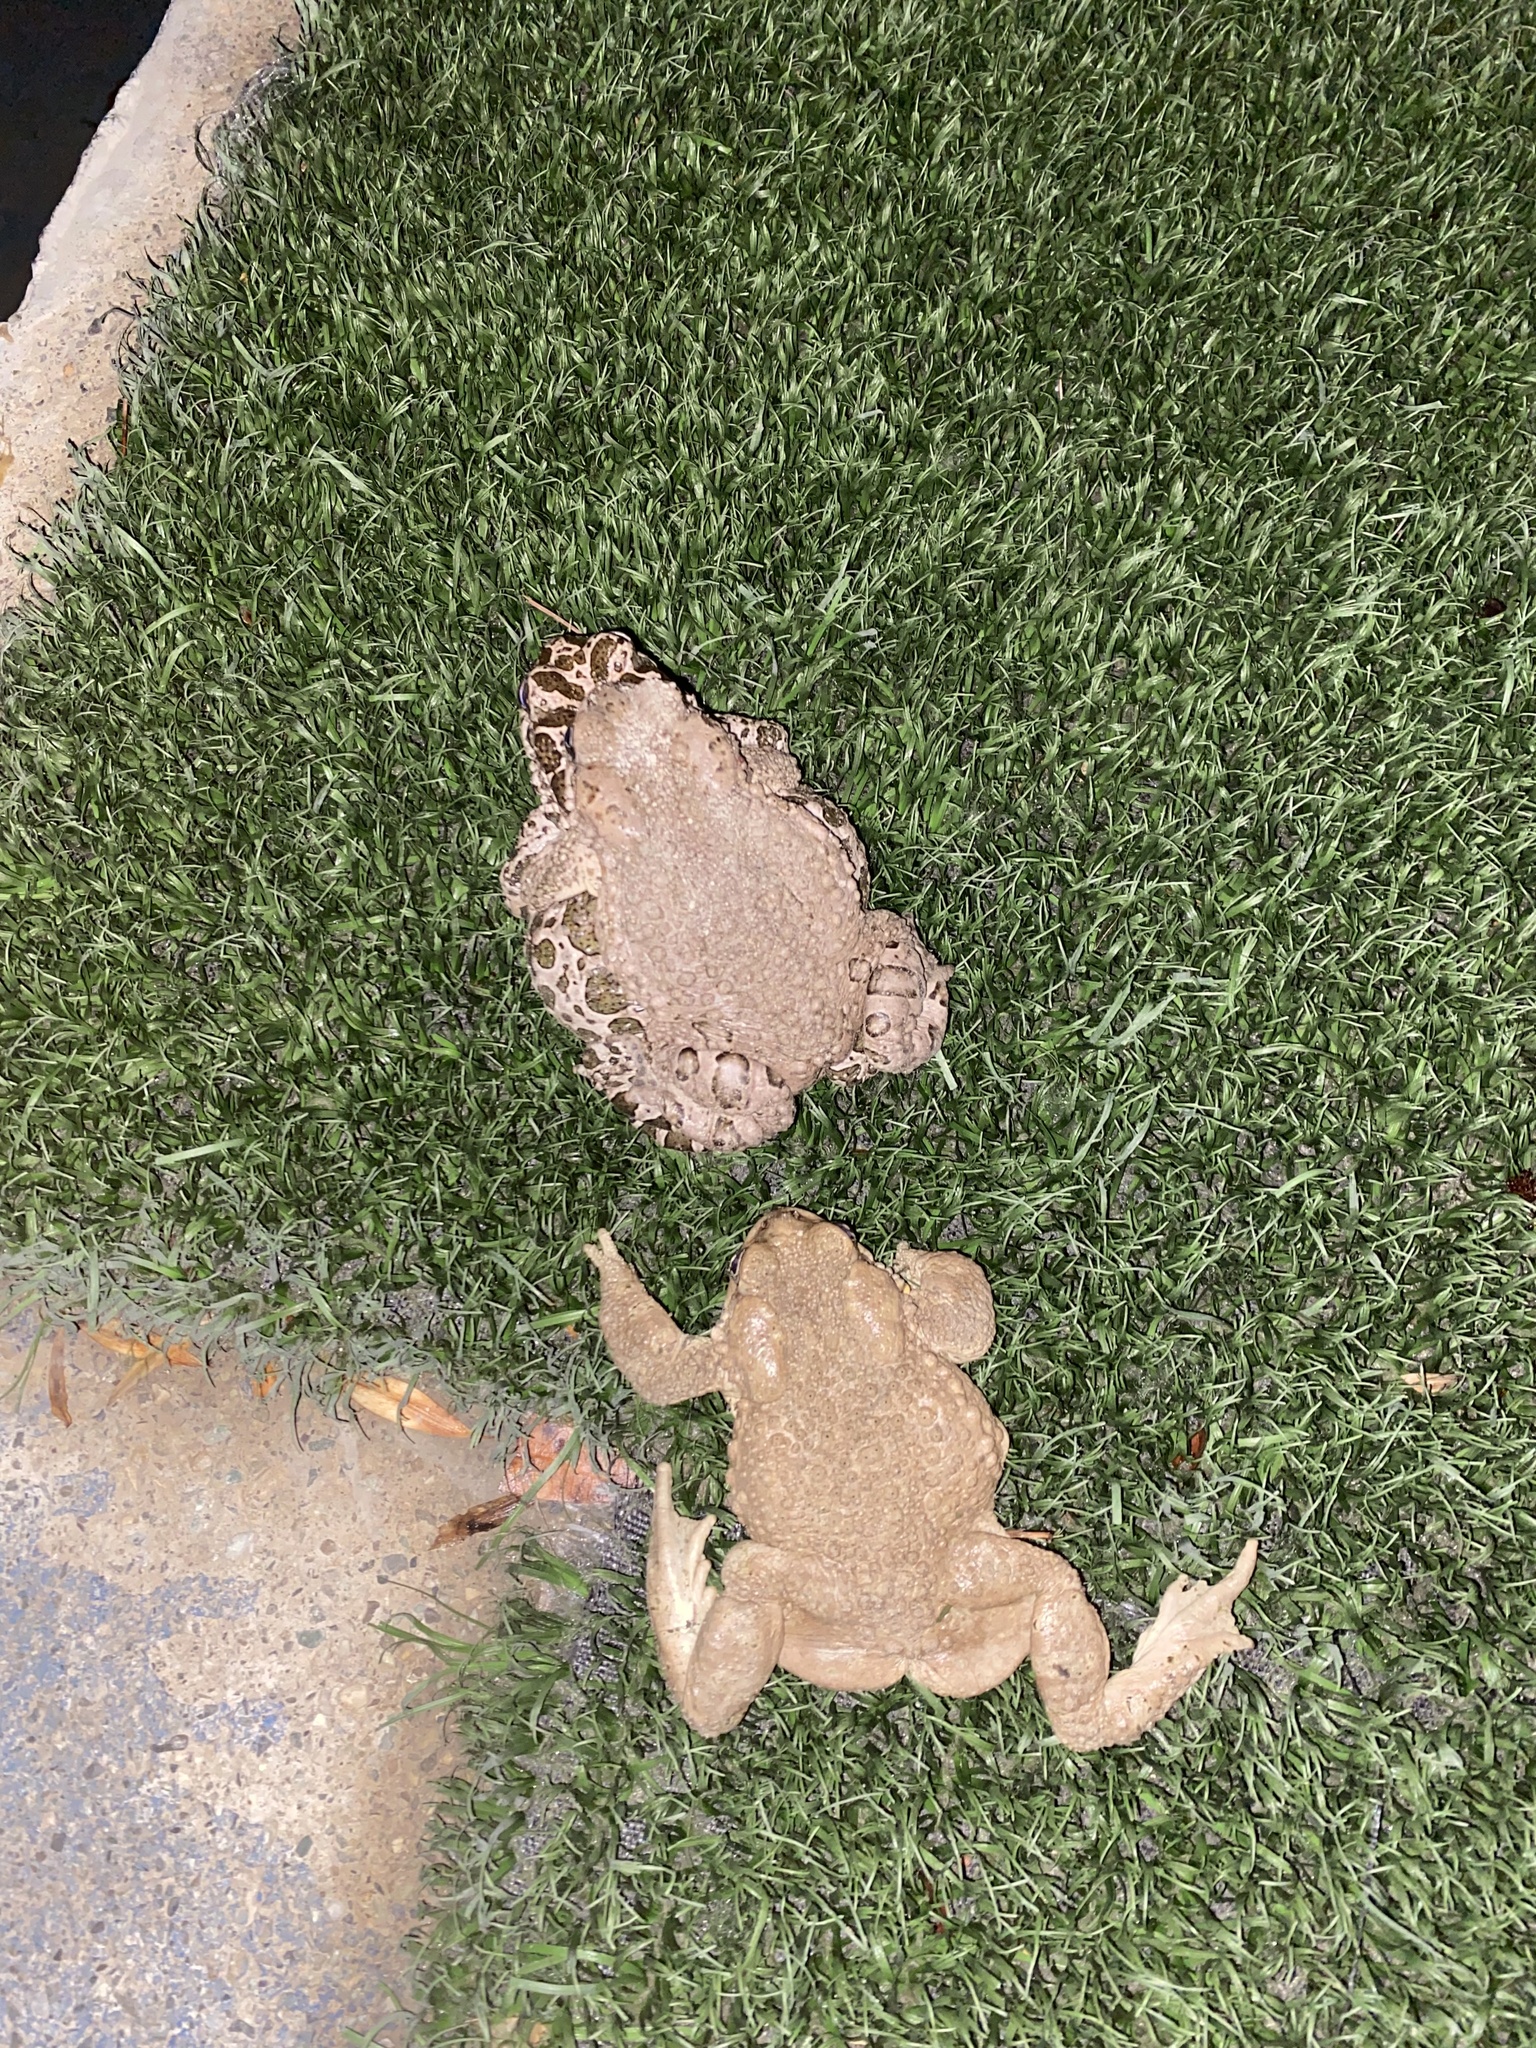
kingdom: Animalia
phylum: Chordata
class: Amphibia
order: Anura
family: Bufonidae
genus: Bufotes
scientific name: Bufotes viridis
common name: European green toad
